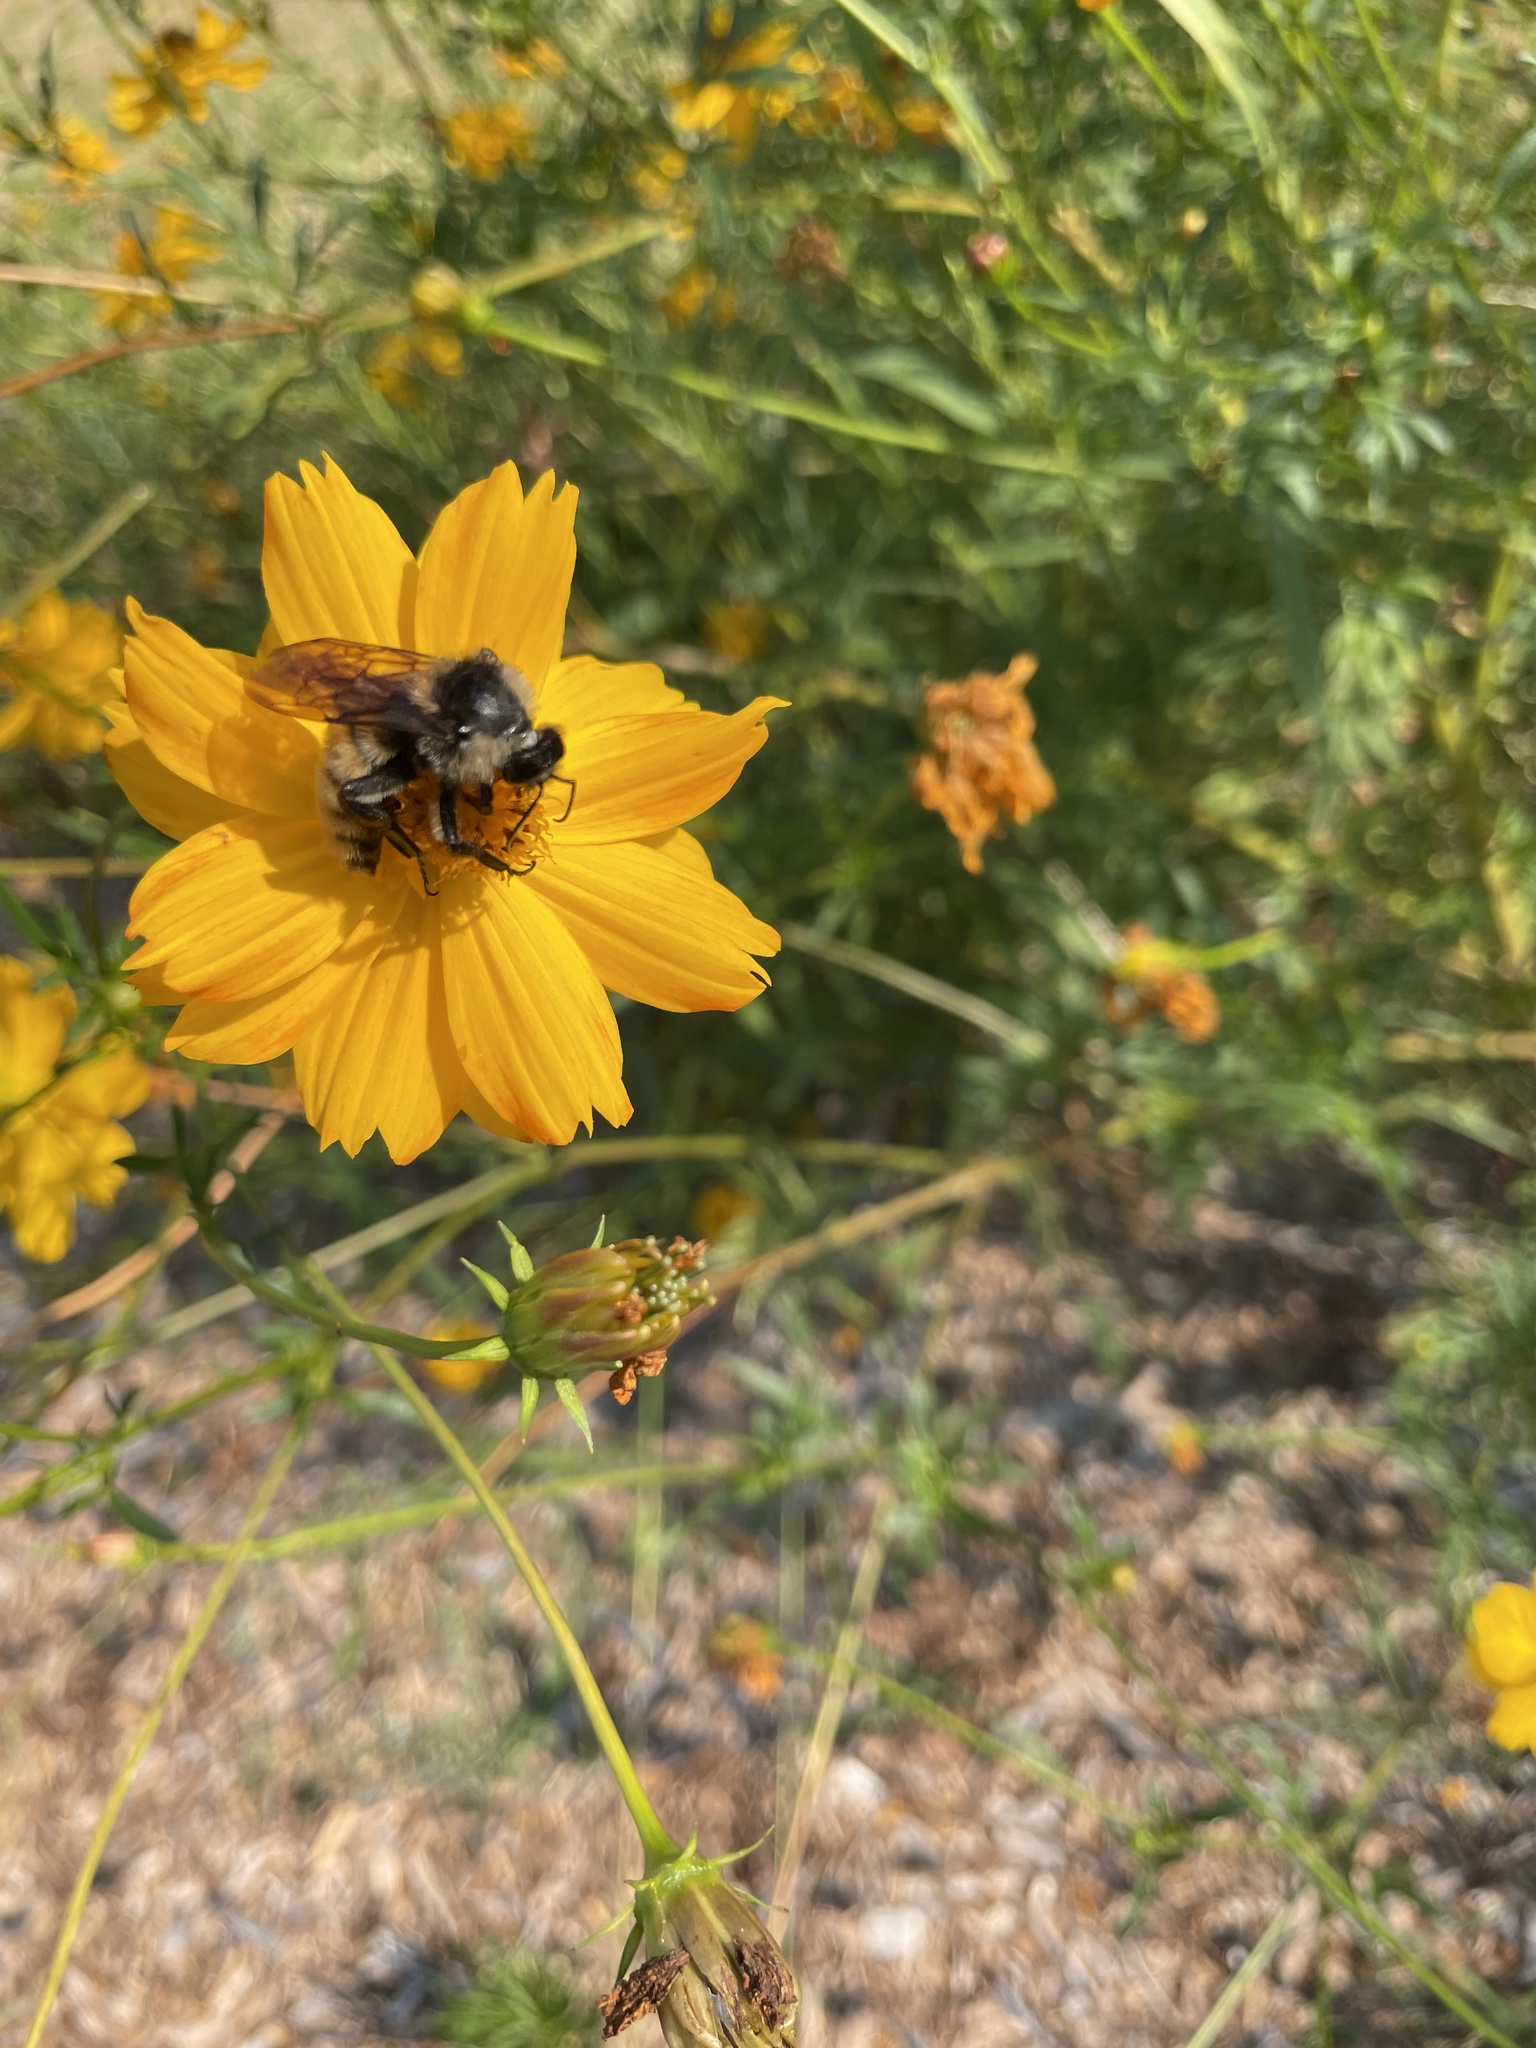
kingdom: Animalia
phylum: Arthropoda
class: Insecta
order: Hymenoptera
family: Apidae
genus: Bombus
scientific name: Bombus pensylvanicus
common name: Bumble bee
